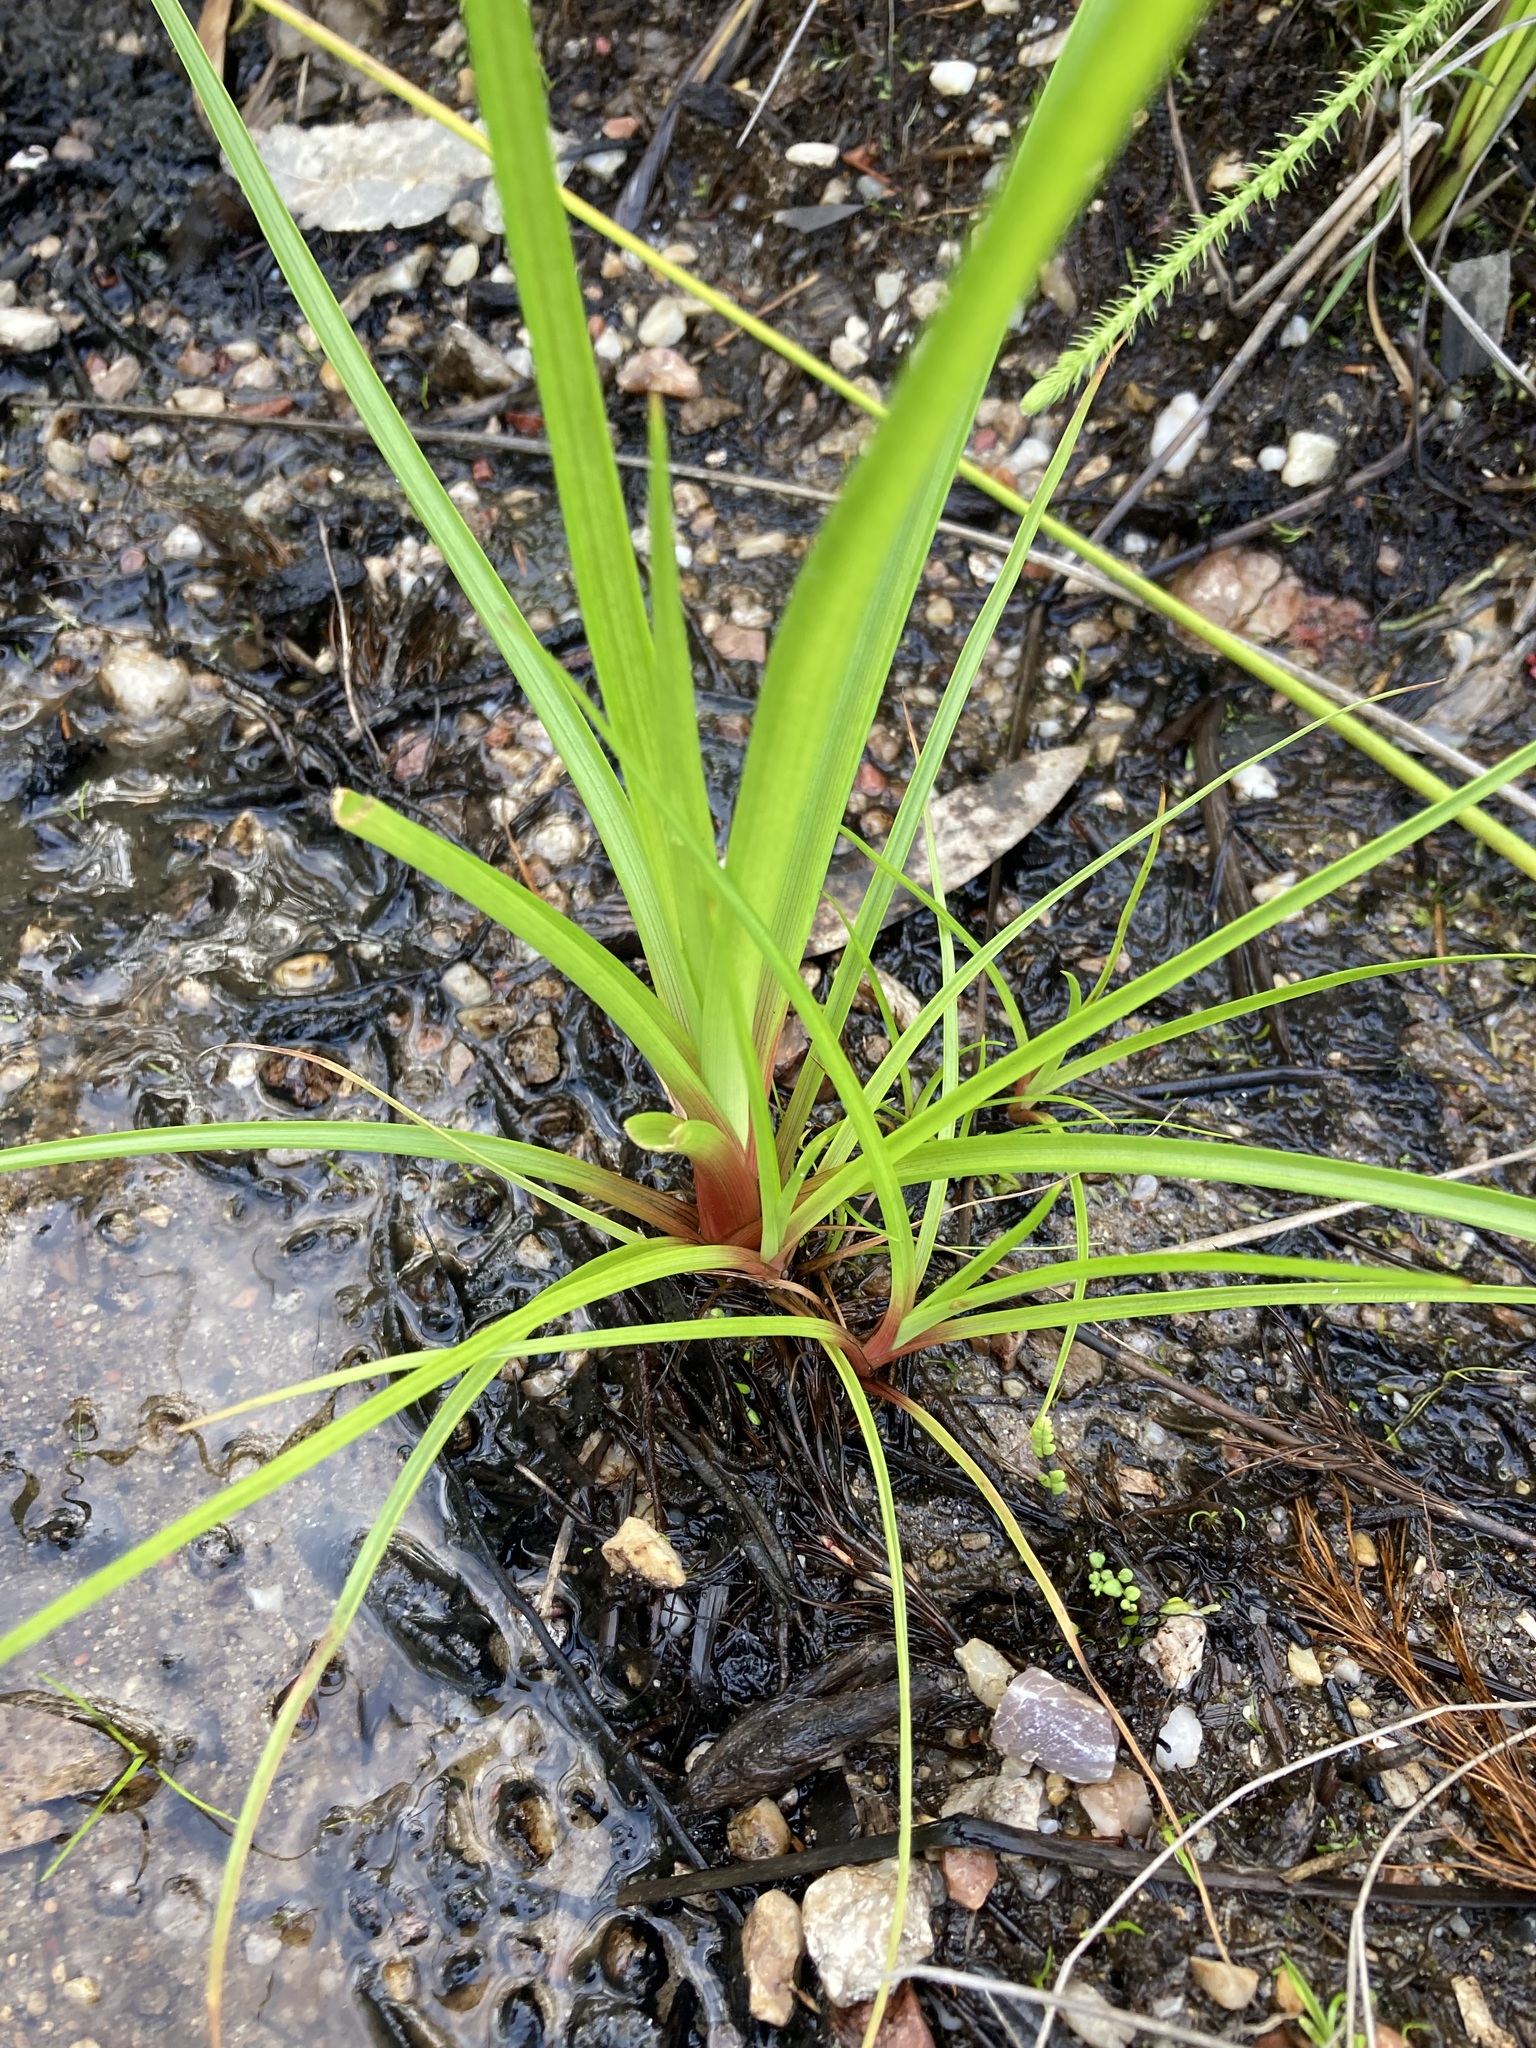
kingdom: Plantae
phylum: Tracheophyta
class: Liliopsida
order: Poales
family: Juncaceae
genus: Juncus
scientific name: Juncus planifolius
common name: Broadleaf rush
